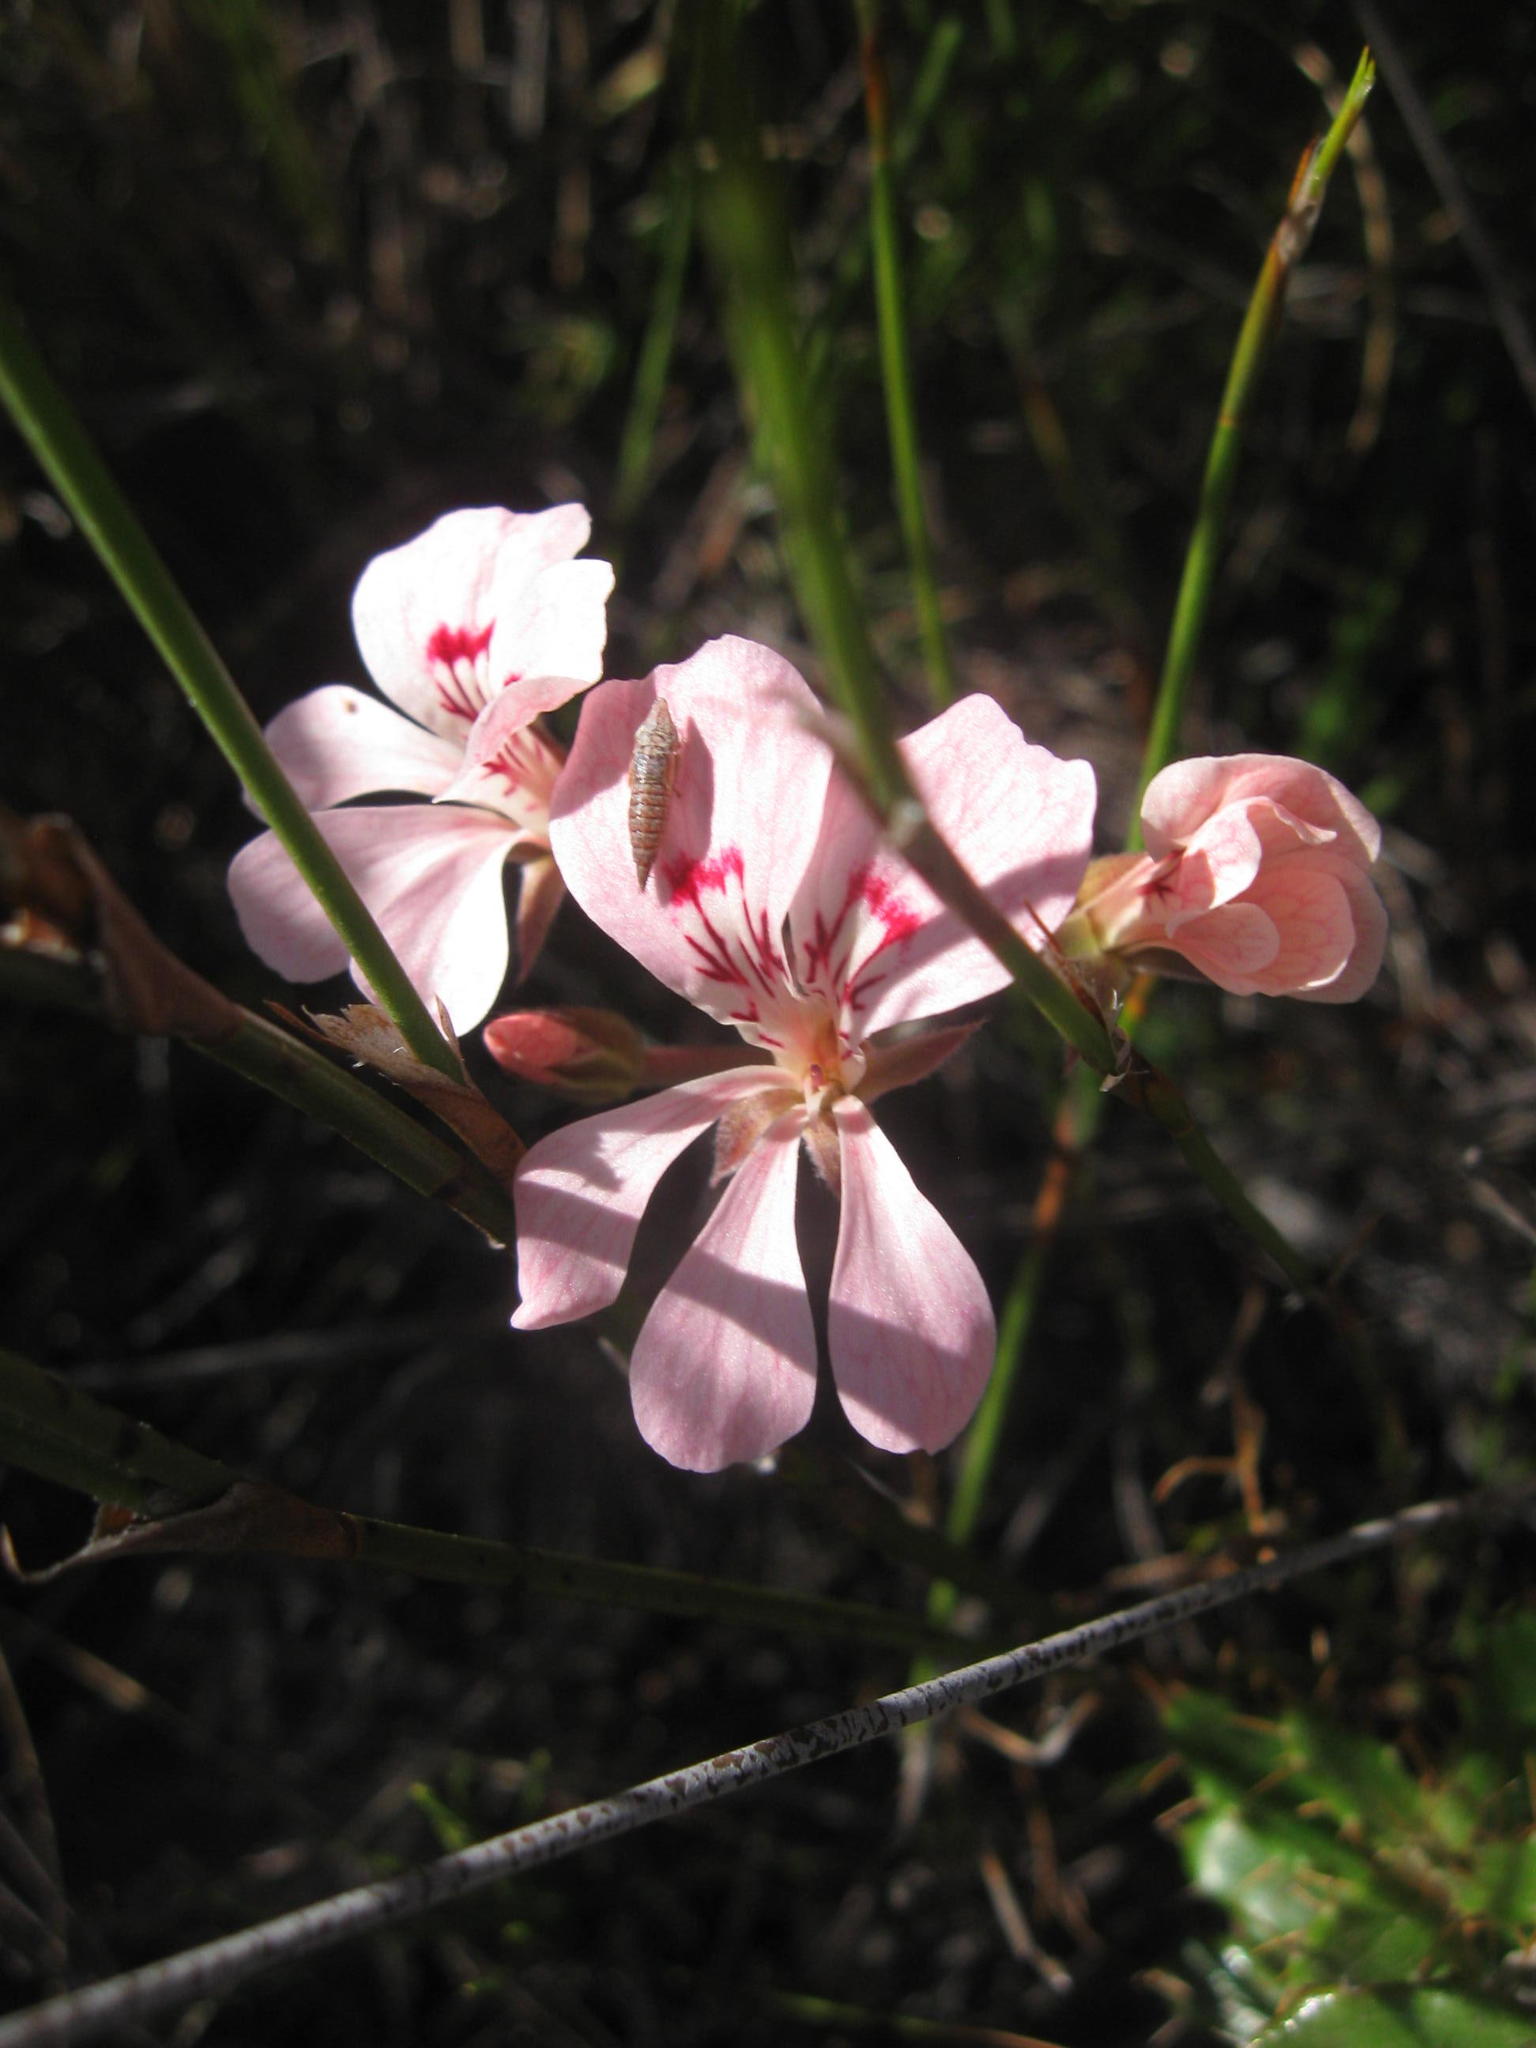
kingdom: Plantae
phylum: Tracheophyta
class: Magnoliopsida
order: Geraniales
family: Geraniaceae
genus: Pelargonium
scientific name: Pelargonium pinnatum
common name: Pinnated pelargonium
